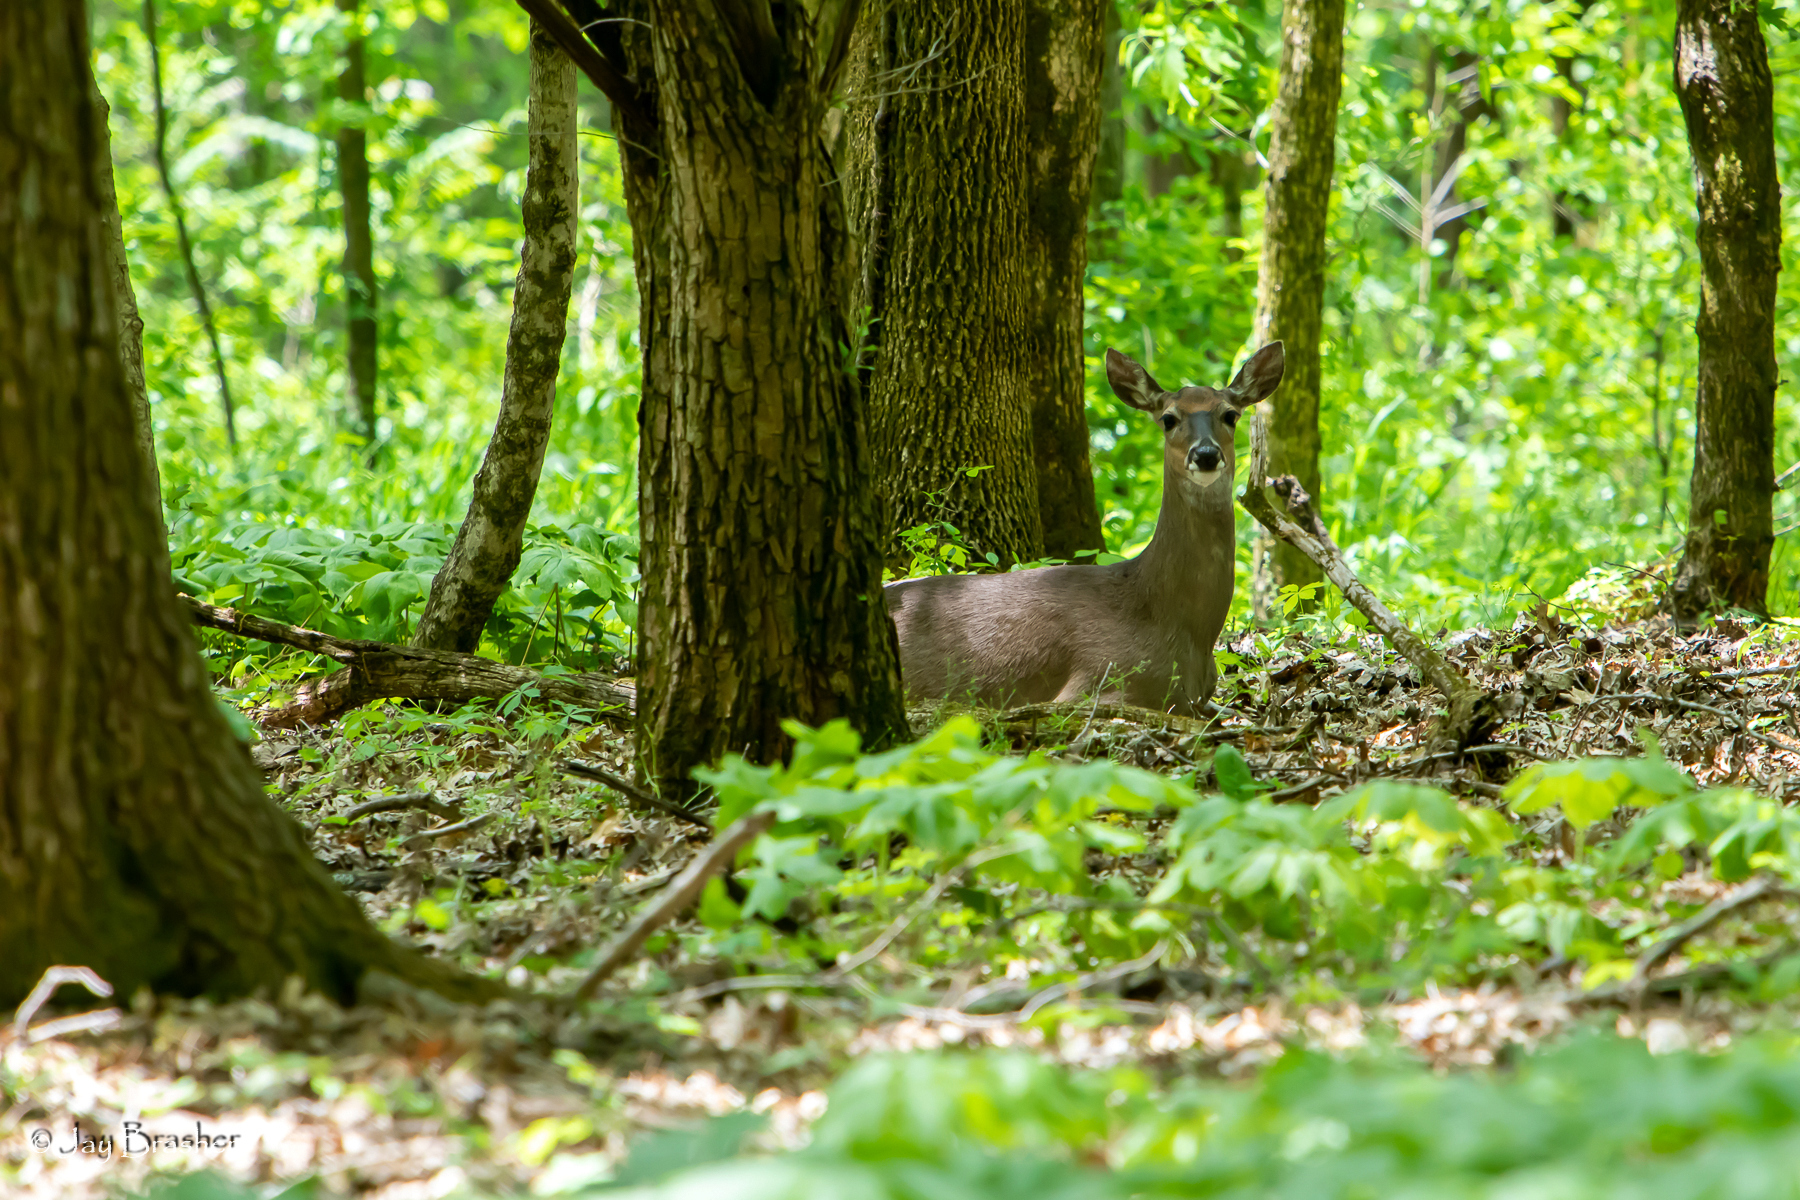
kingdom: Animalia
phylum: Chordata
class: Mammalia
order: Artiodactyla
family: Cervidae
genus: Odocoileus
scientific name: Odocoileus virginianus
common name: White-tailed deer
